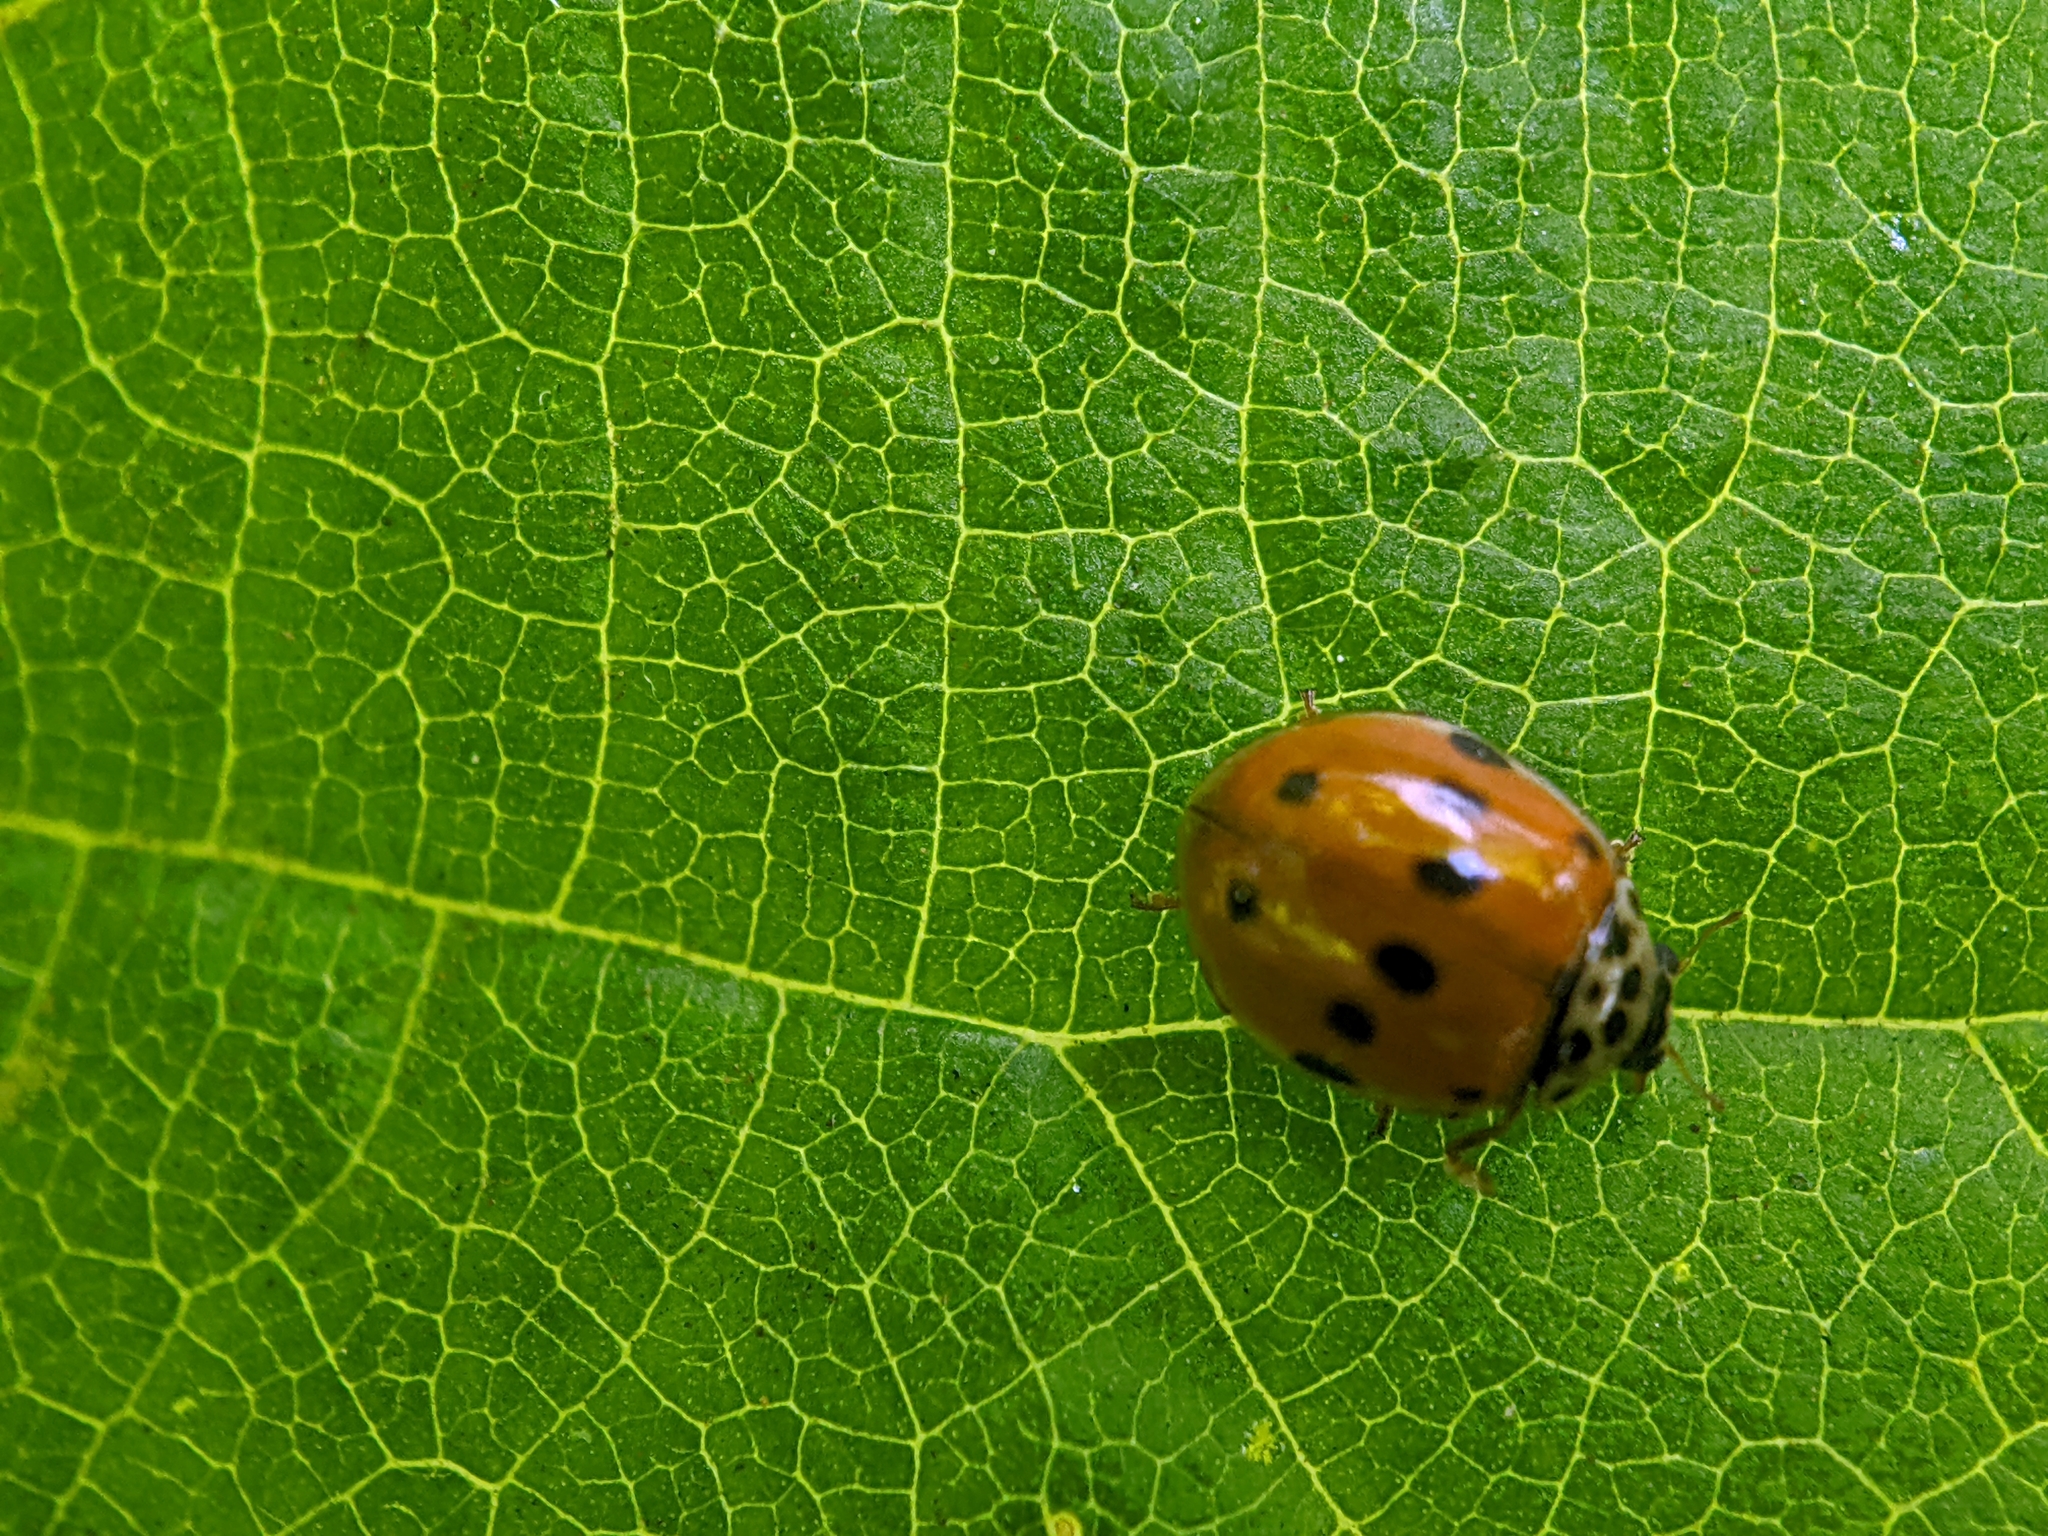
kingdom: Animalia
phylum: Arthropoda
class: Insecta
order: Coleoptera
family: Coccinellidae
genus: Adalia
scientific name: Adalia decempunctata
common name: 10-spot ladybird
